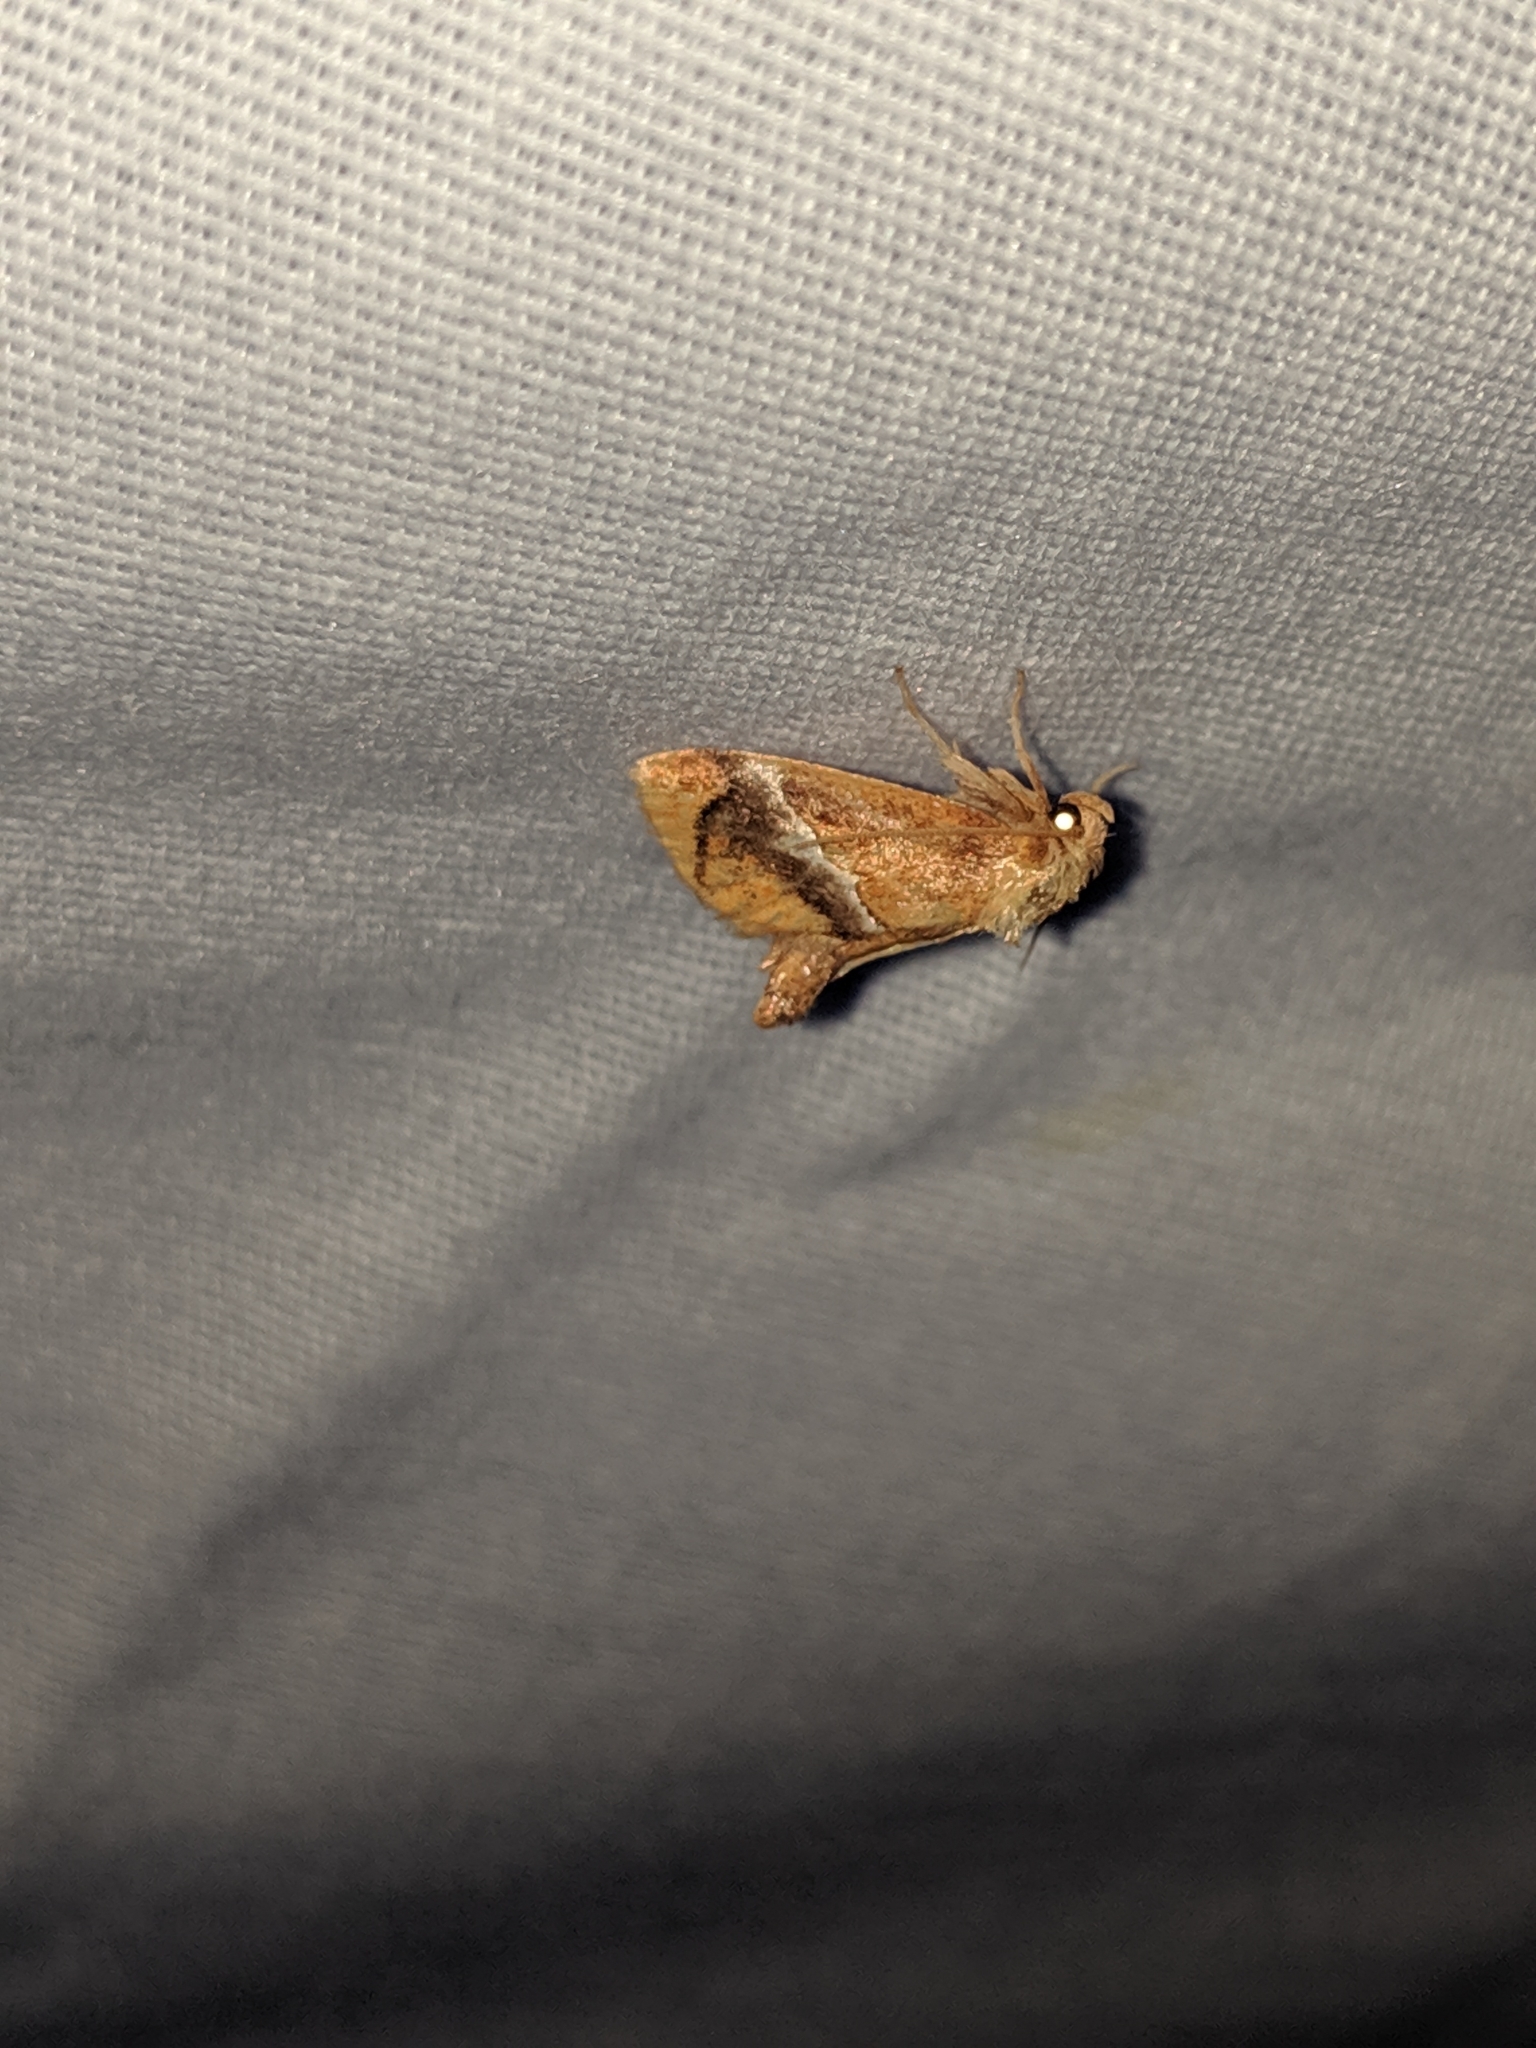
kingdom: Animalia
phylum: Arthropoda
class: Insecta
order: Lepidoptera
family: Limacodidae
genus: Lithacodes
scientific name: Lithacodes fasciola
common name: Yellow-shouldered slug moth
